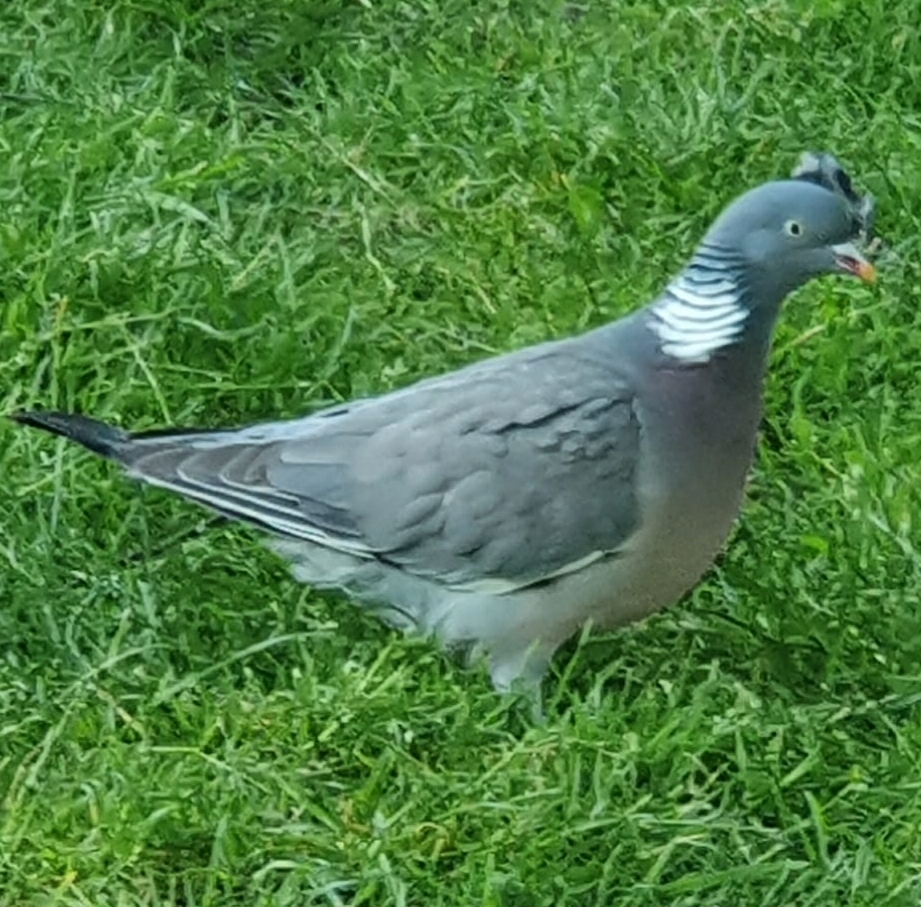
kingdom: Animalia
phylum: Chordata
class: Aves
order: Columbiformes
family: Columbidae
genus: Columba
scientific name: Columba palumbus
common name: Common wood pigeon
